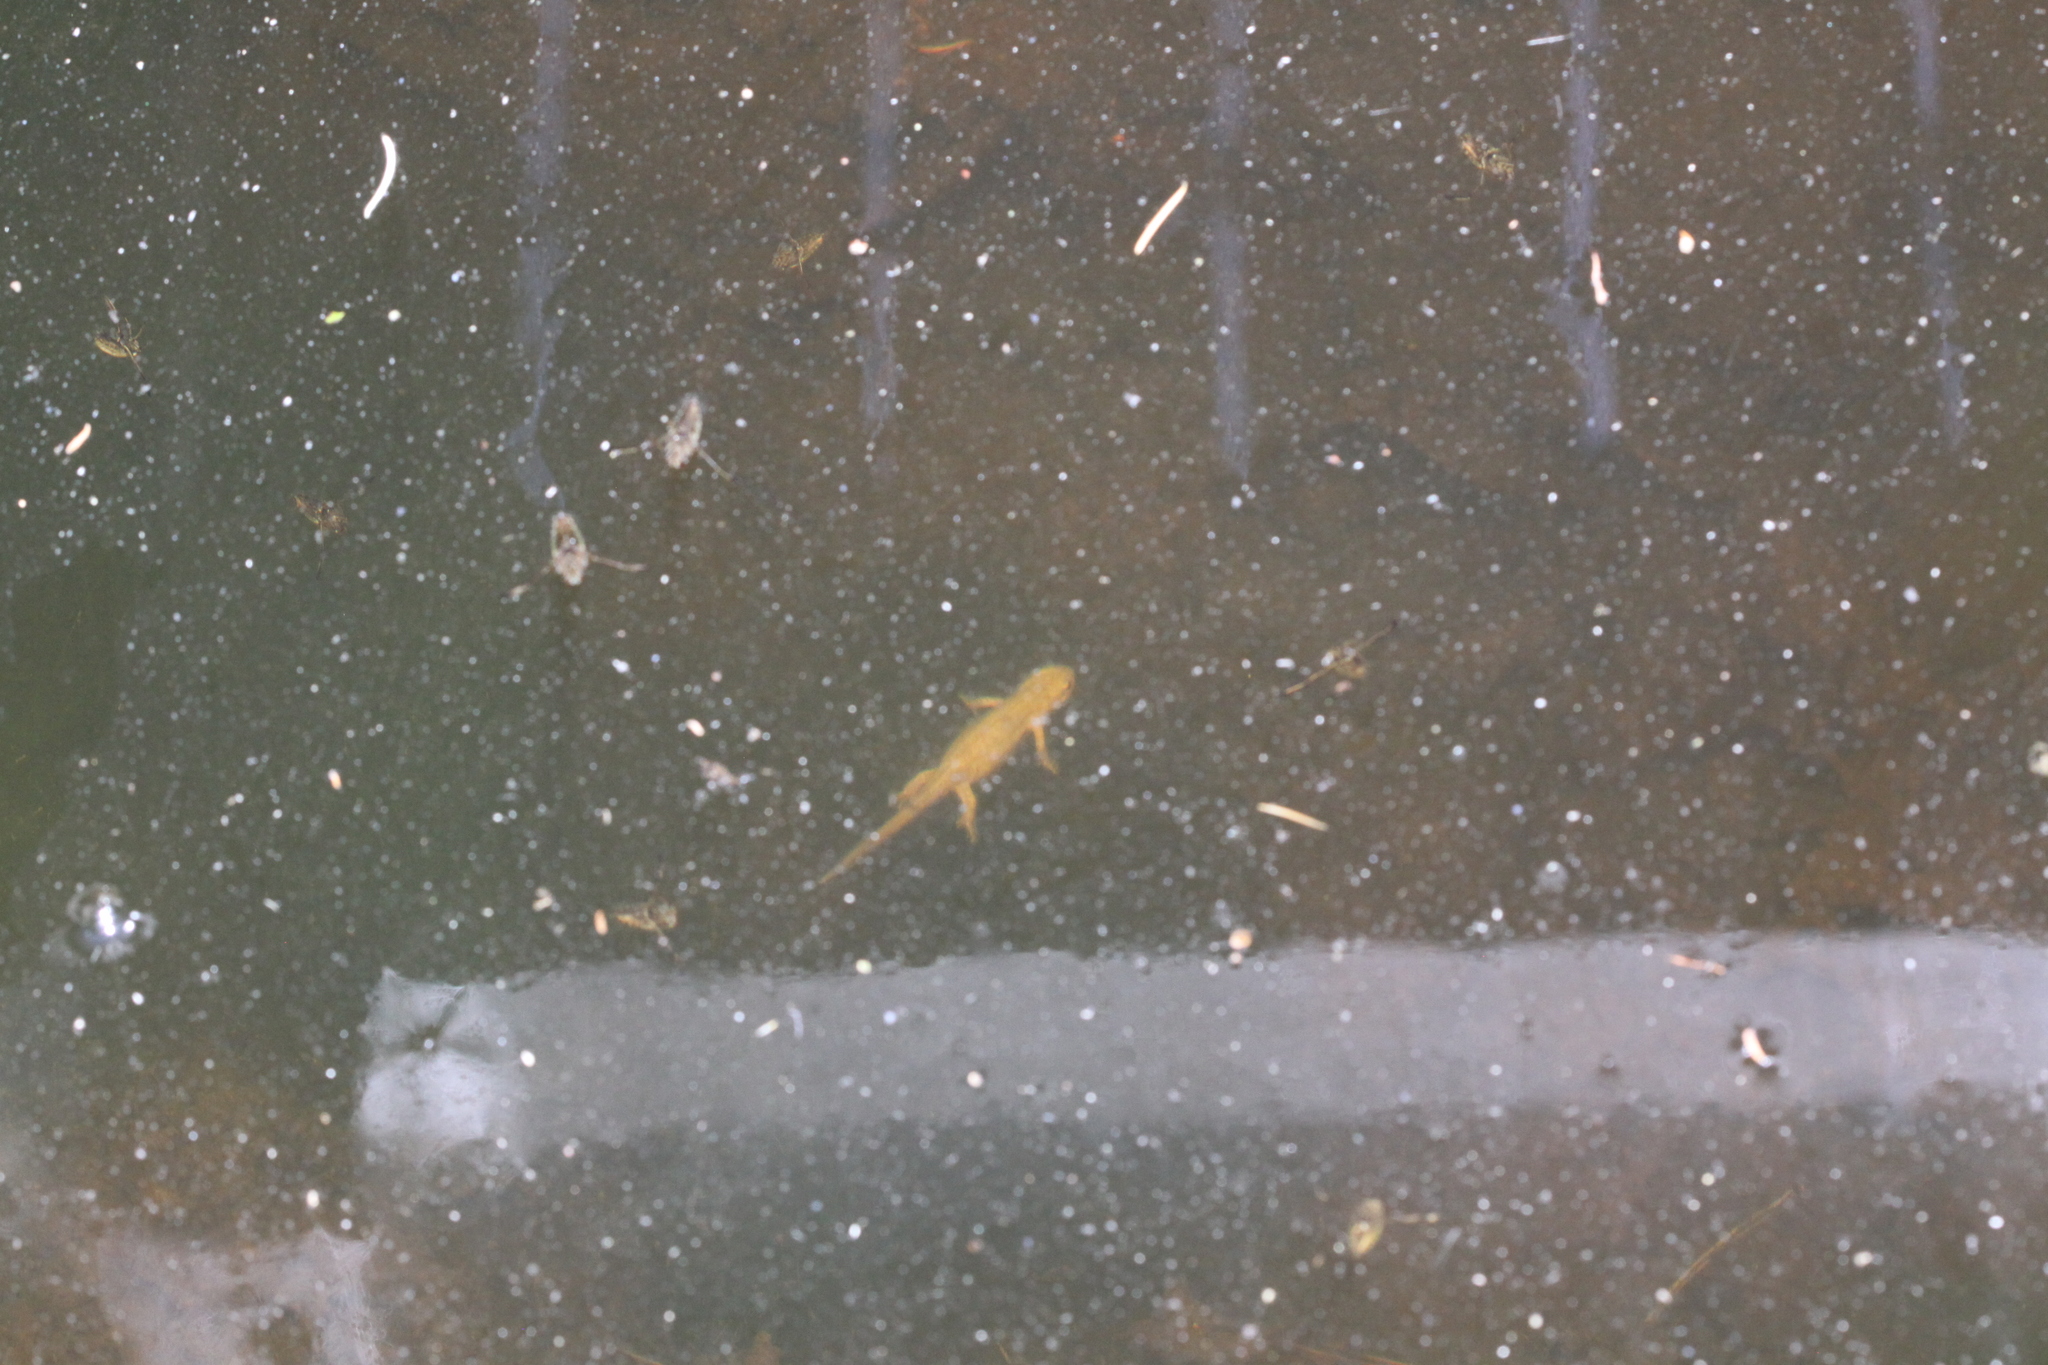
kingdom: Animalia
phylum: Chordata
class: Amphibia
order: Caudata
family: Salamandridae
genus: Lissotriton
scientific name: Lissotriton helveticus
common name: Palmate newt
